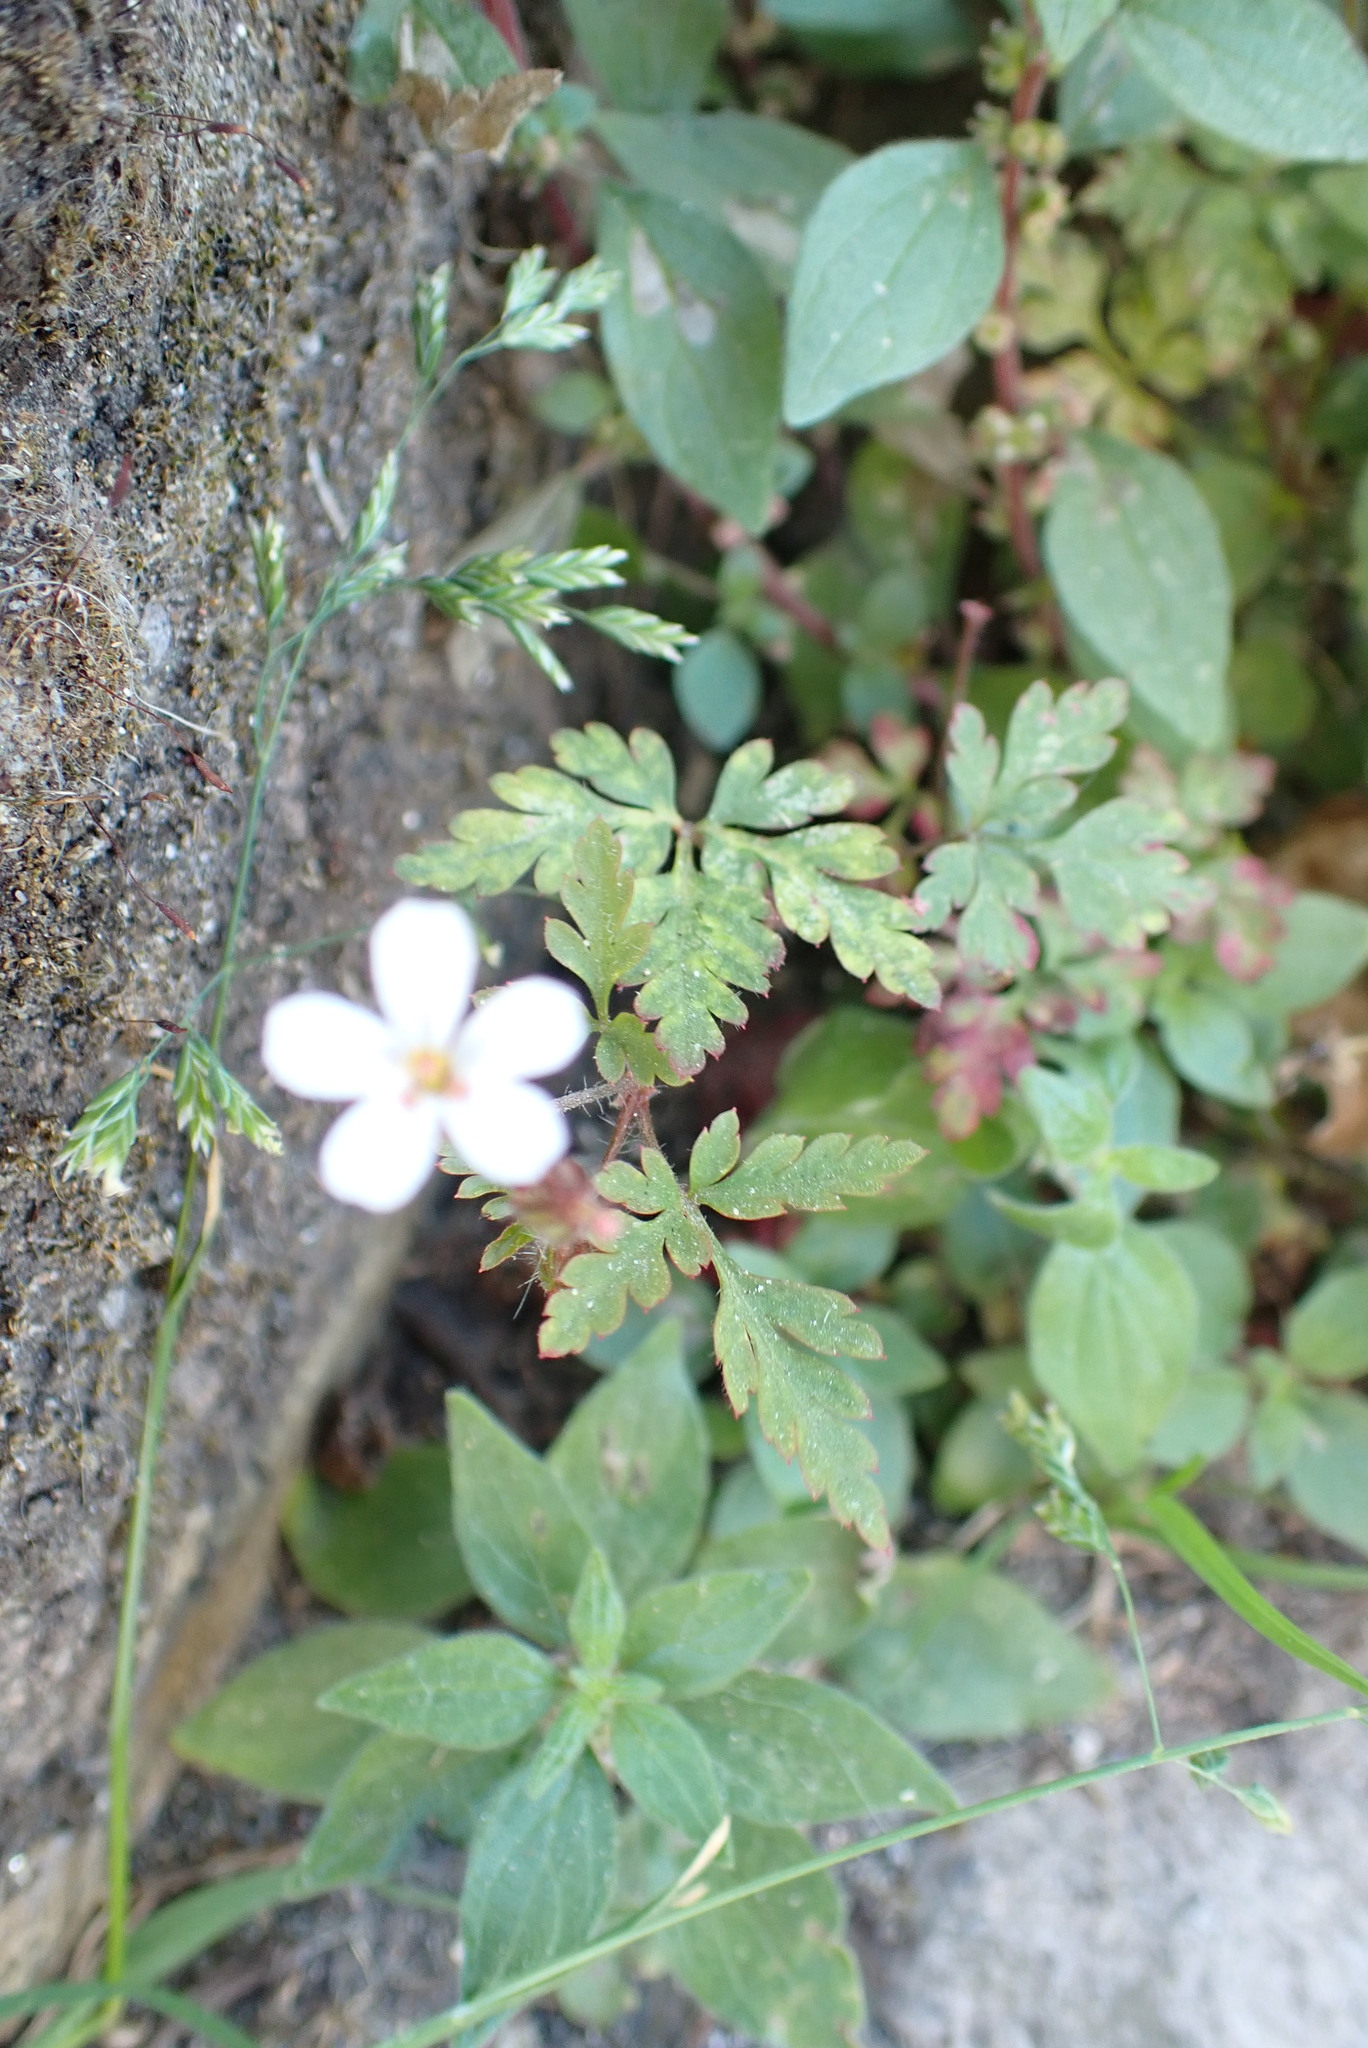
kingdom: Plantae
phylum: Tracheophyta
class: Magnoliopsida
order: Geraniales
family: Geraniaceae
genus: Geranium
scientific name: Geranium robertianum
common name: Herb-robert
